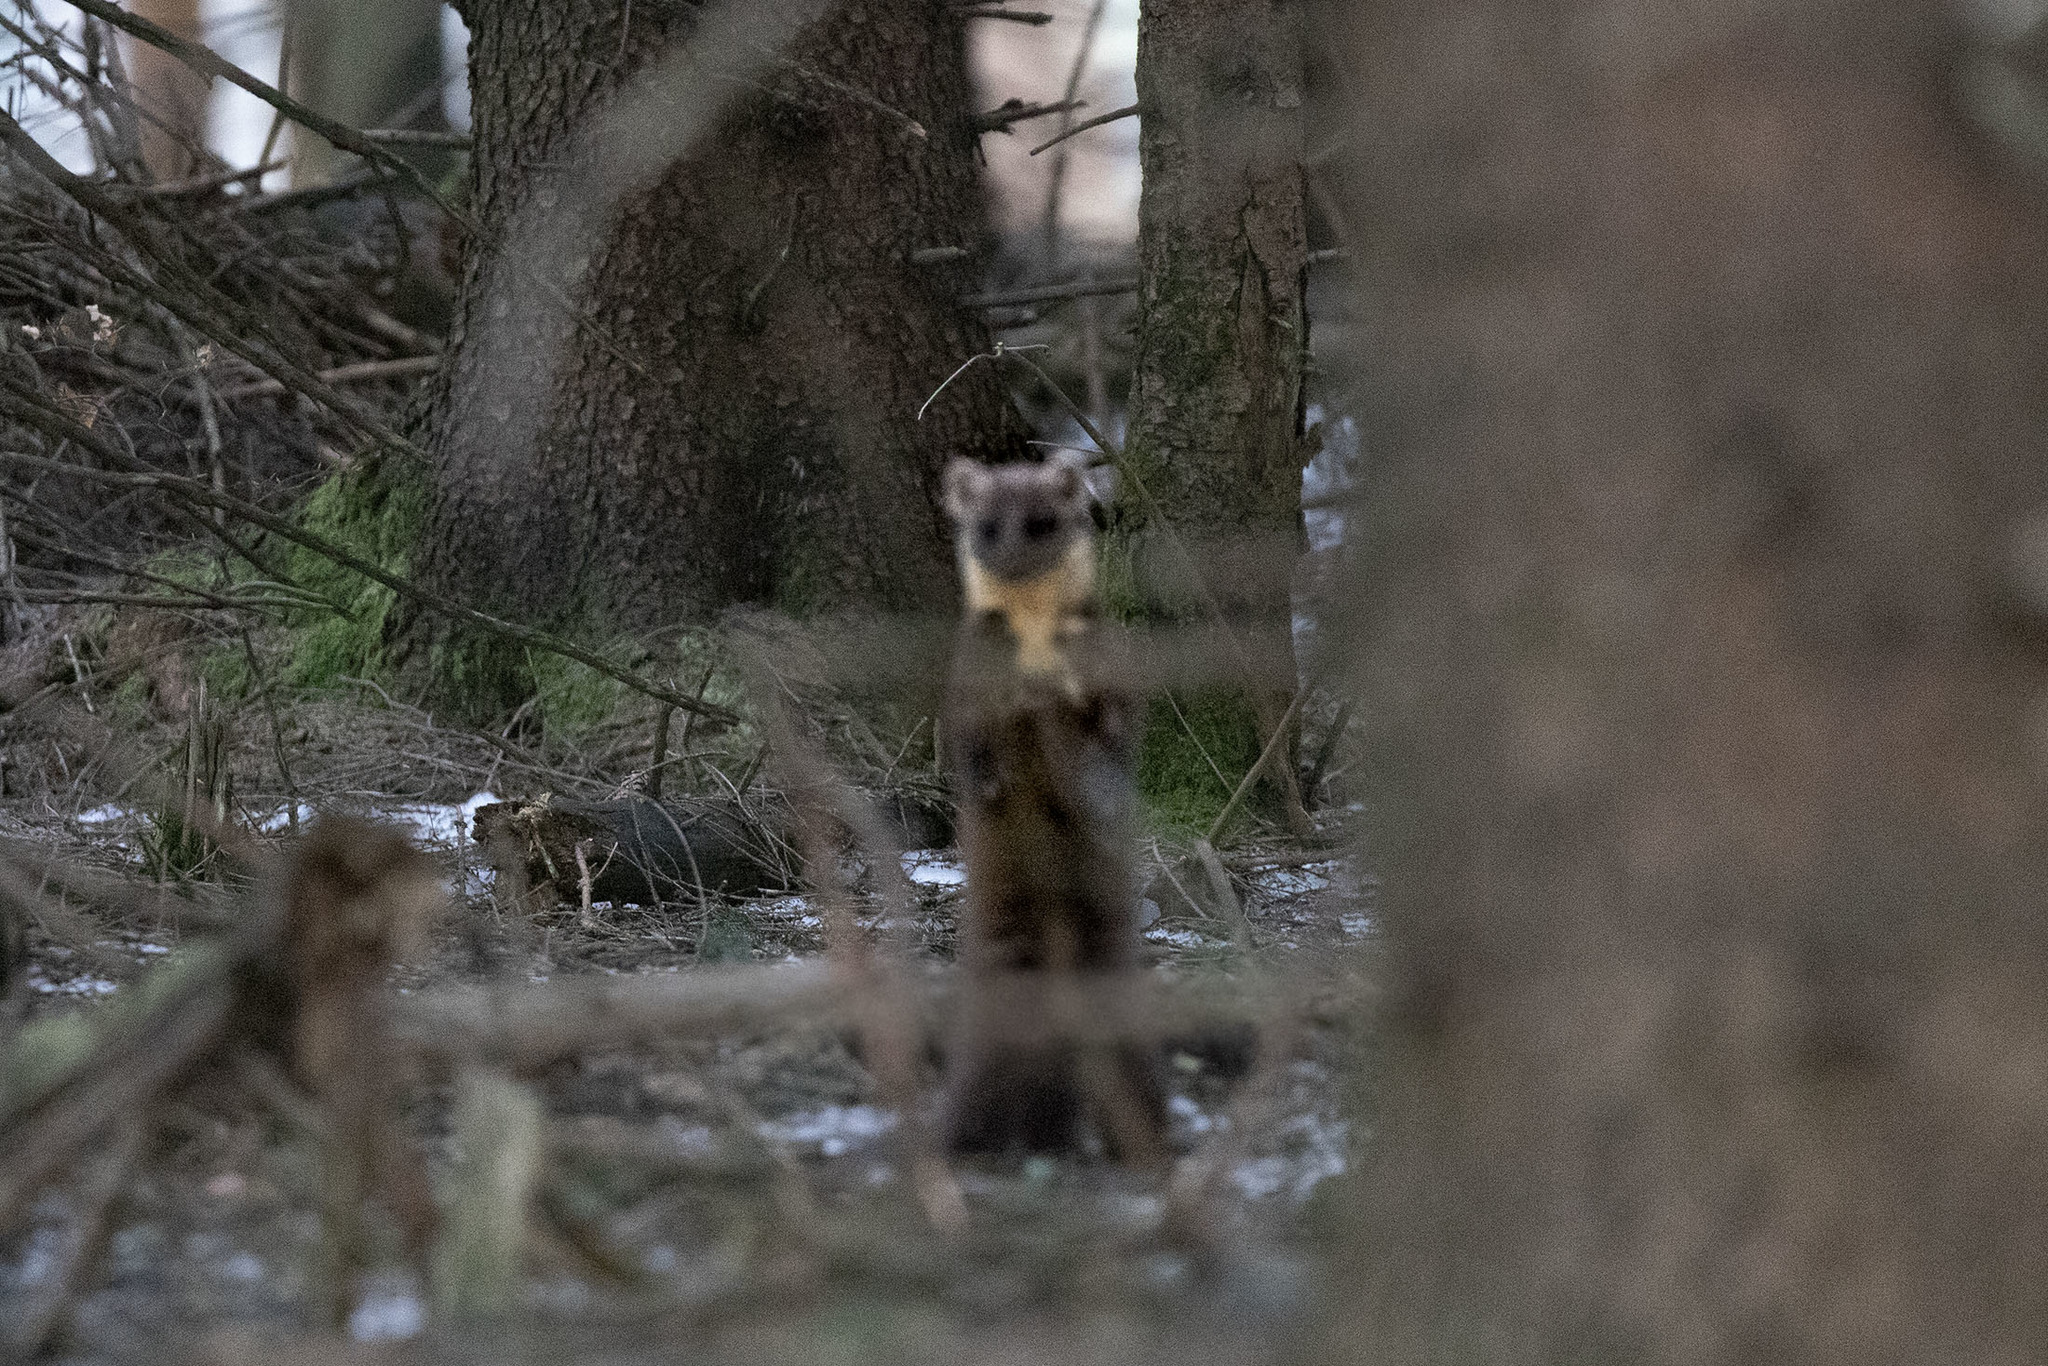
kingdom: Animalia
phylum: Chordata
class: Mammalia
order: Carnivora
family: Mustelidae
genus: Martes
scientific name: Martes martes
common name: European pine marten
